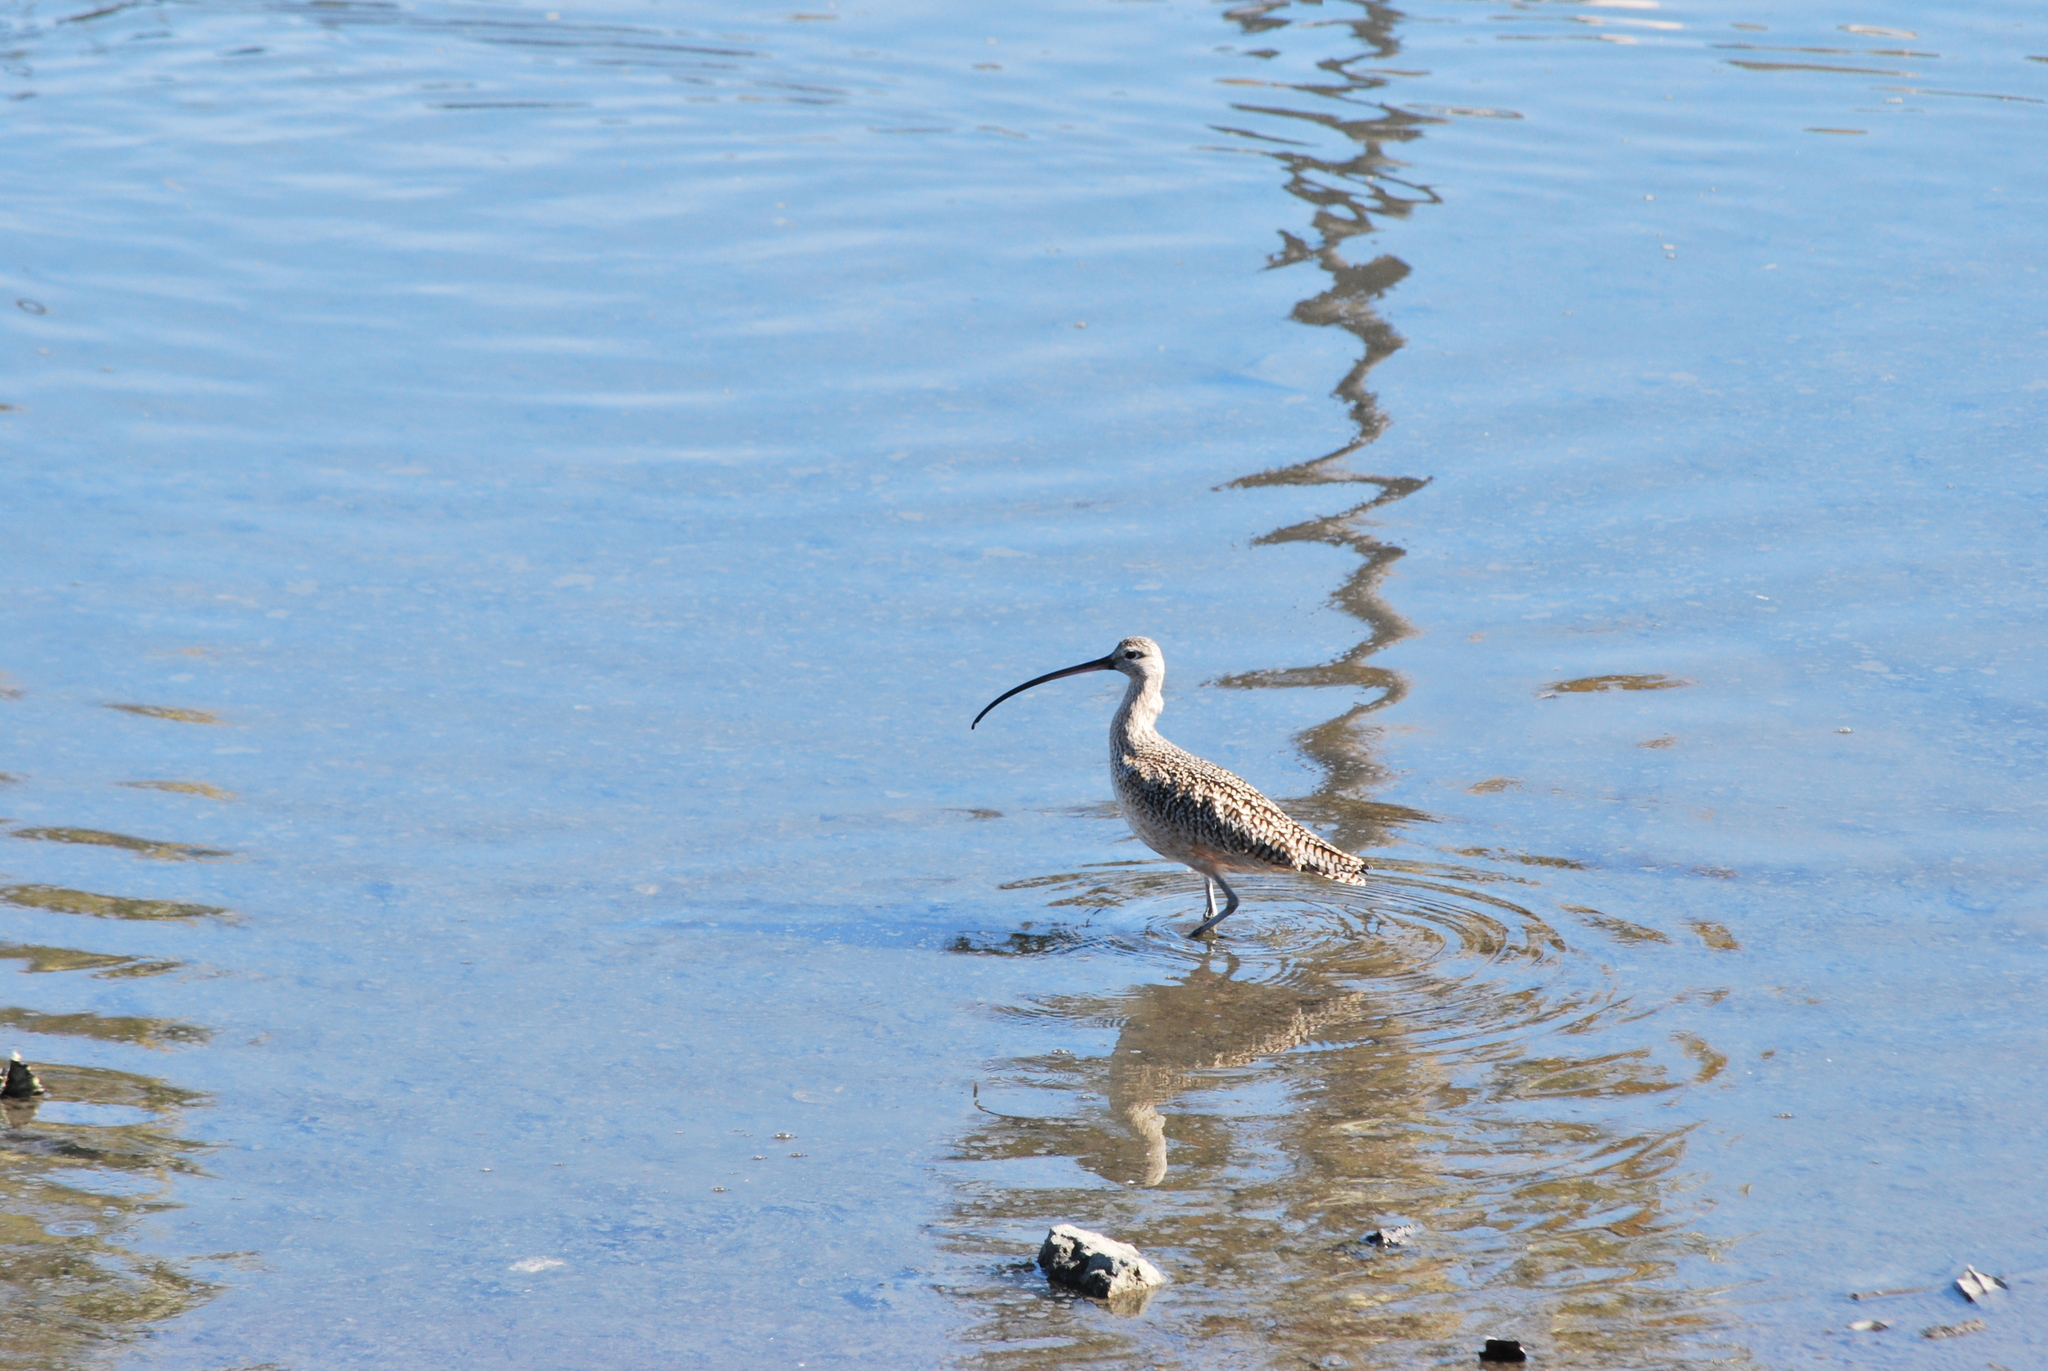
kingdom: Animalia
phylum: Chordata
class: Aves
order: Charadriiformes
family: Scolopacidae
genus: Numenius
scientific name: Numenius americanus
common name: Long-billed curlew
